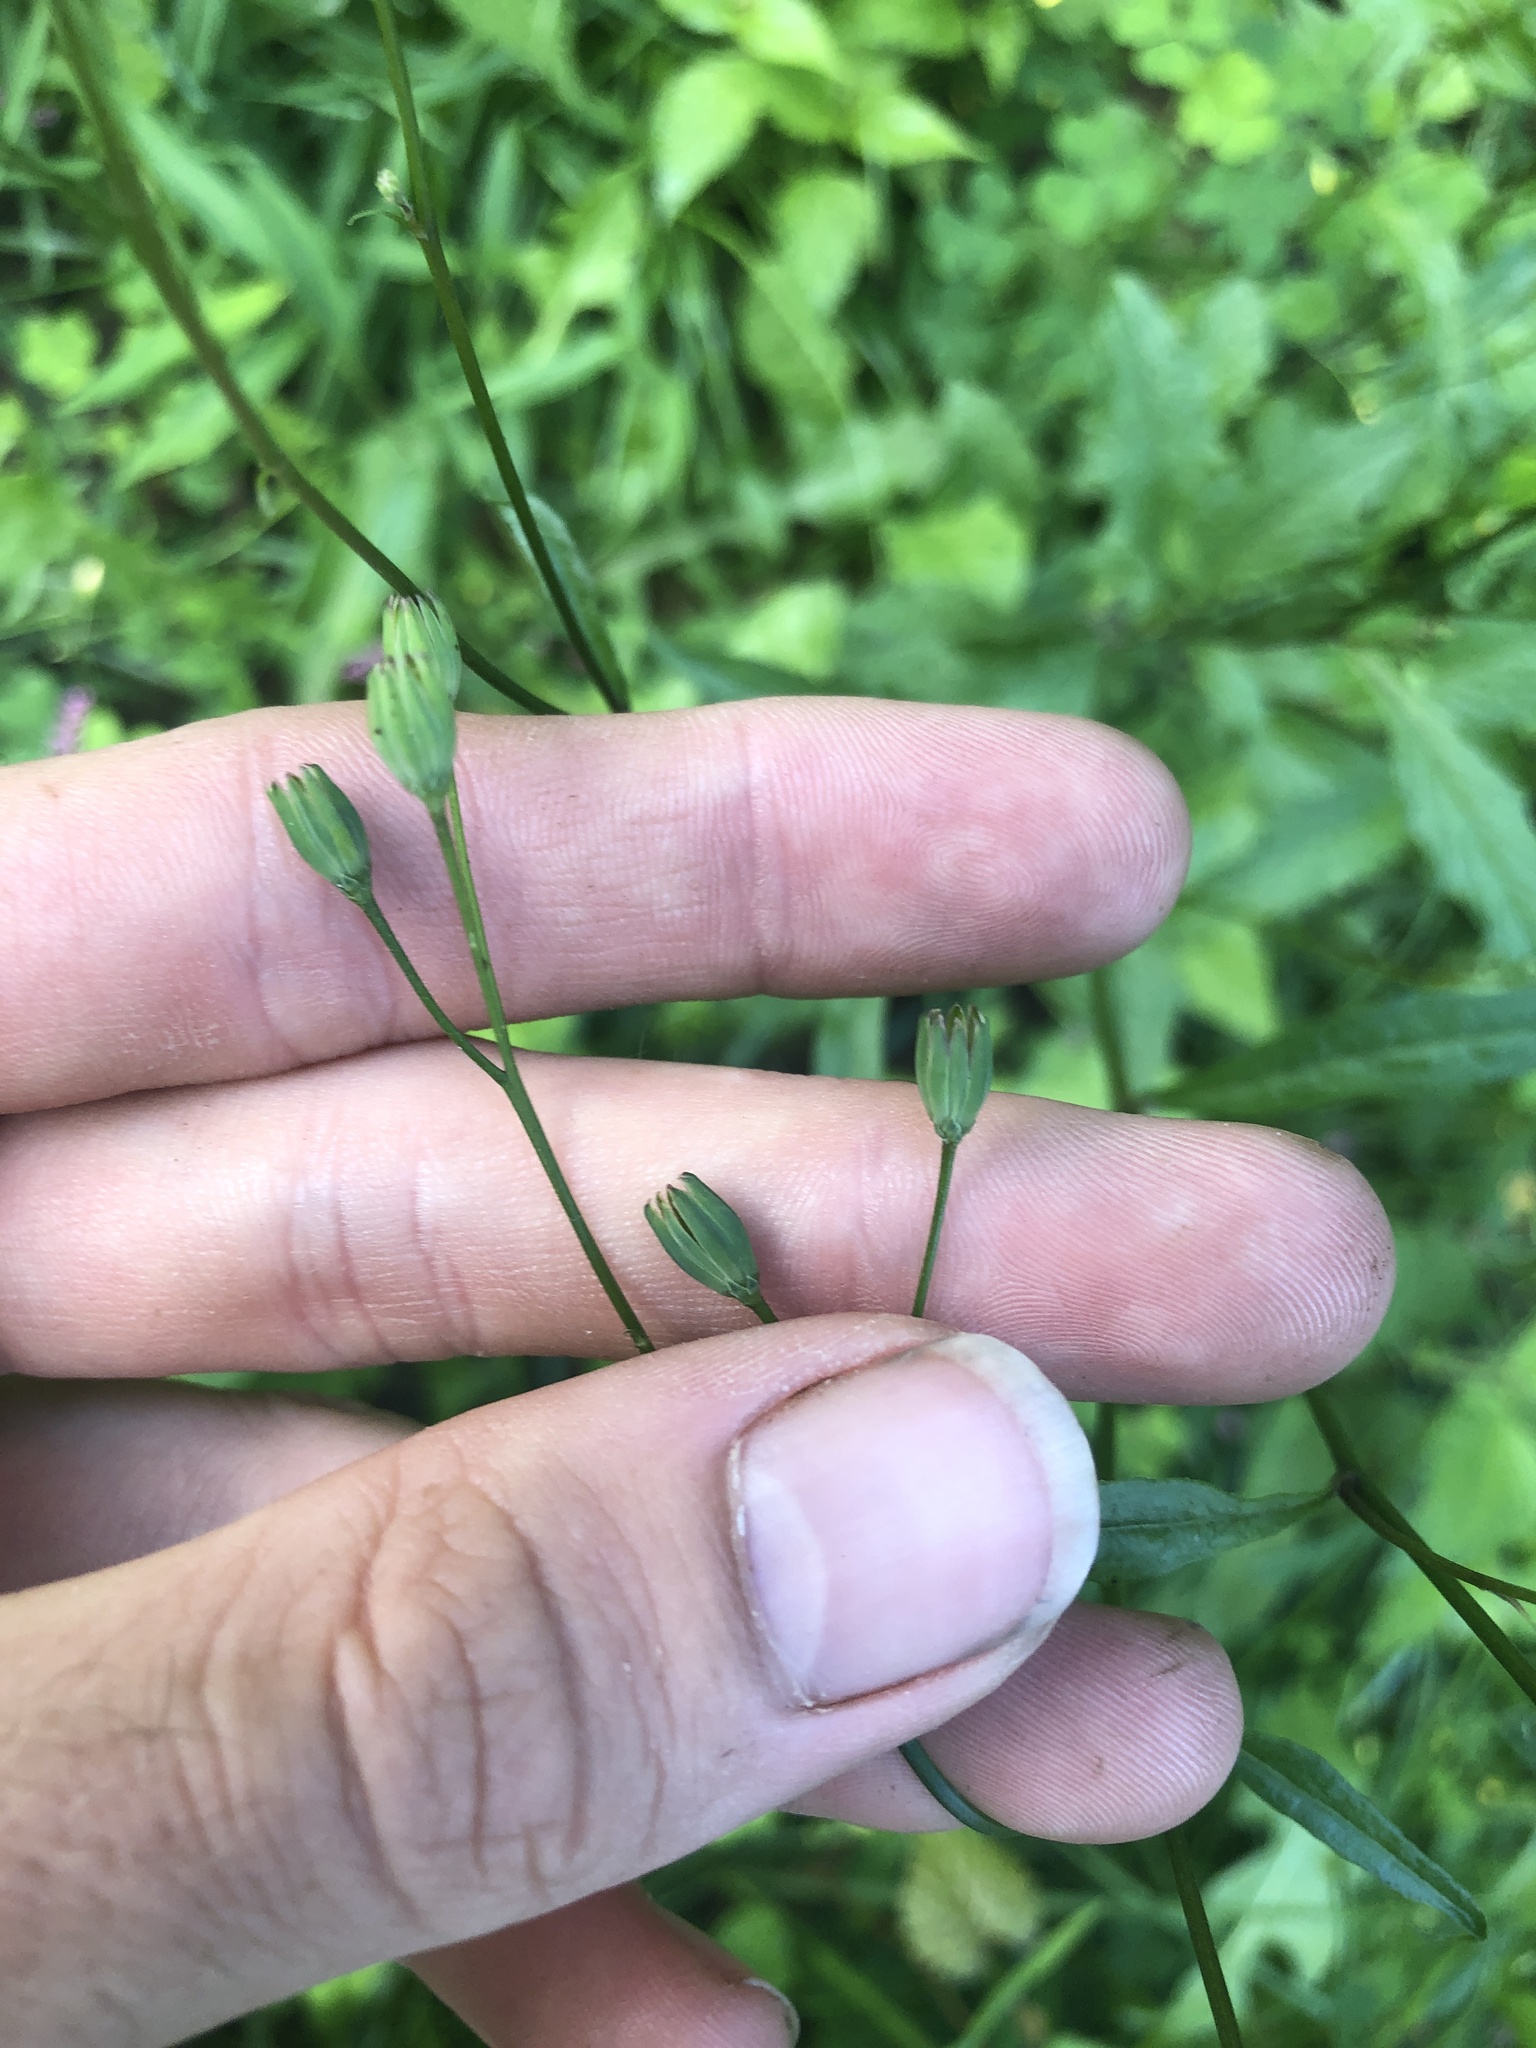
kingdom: Plantae
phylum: Tracheophyta
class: Magnoliopsida
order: Asterales
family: Asteraceae
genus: Lapsana
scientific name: Lapsana communis
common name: Nipplewort
